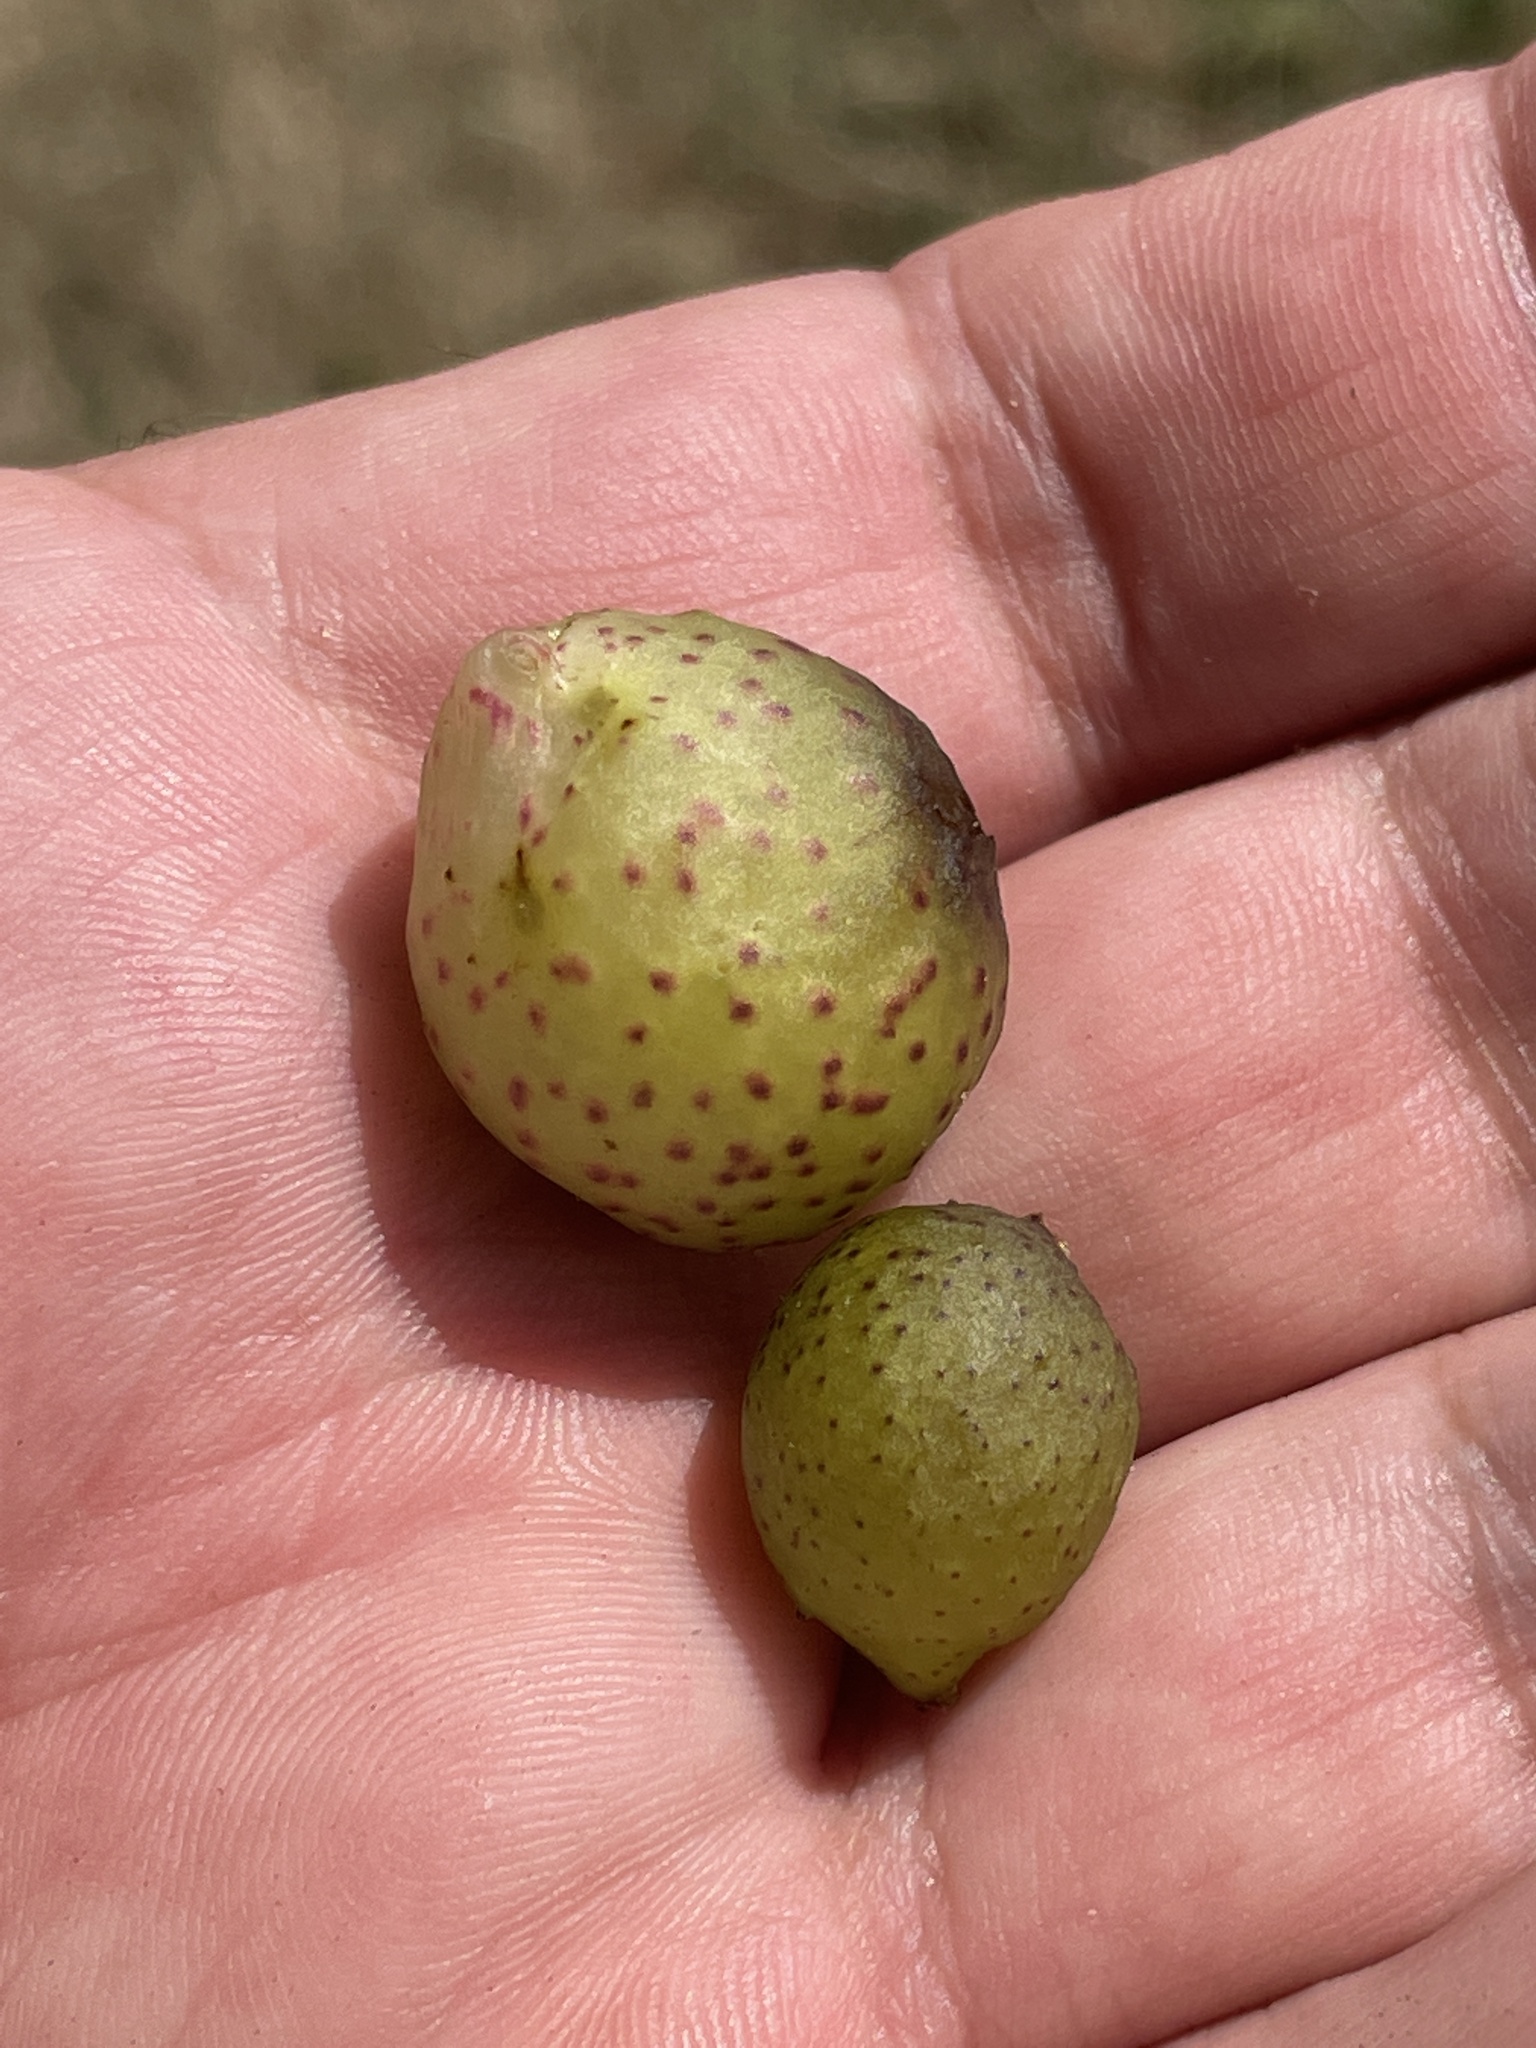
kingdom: Animalia
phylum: Arthropoda
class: Insecta
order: Hymenoptera
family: Cynipidae
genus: Amphibolips
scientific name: Amphibolips
